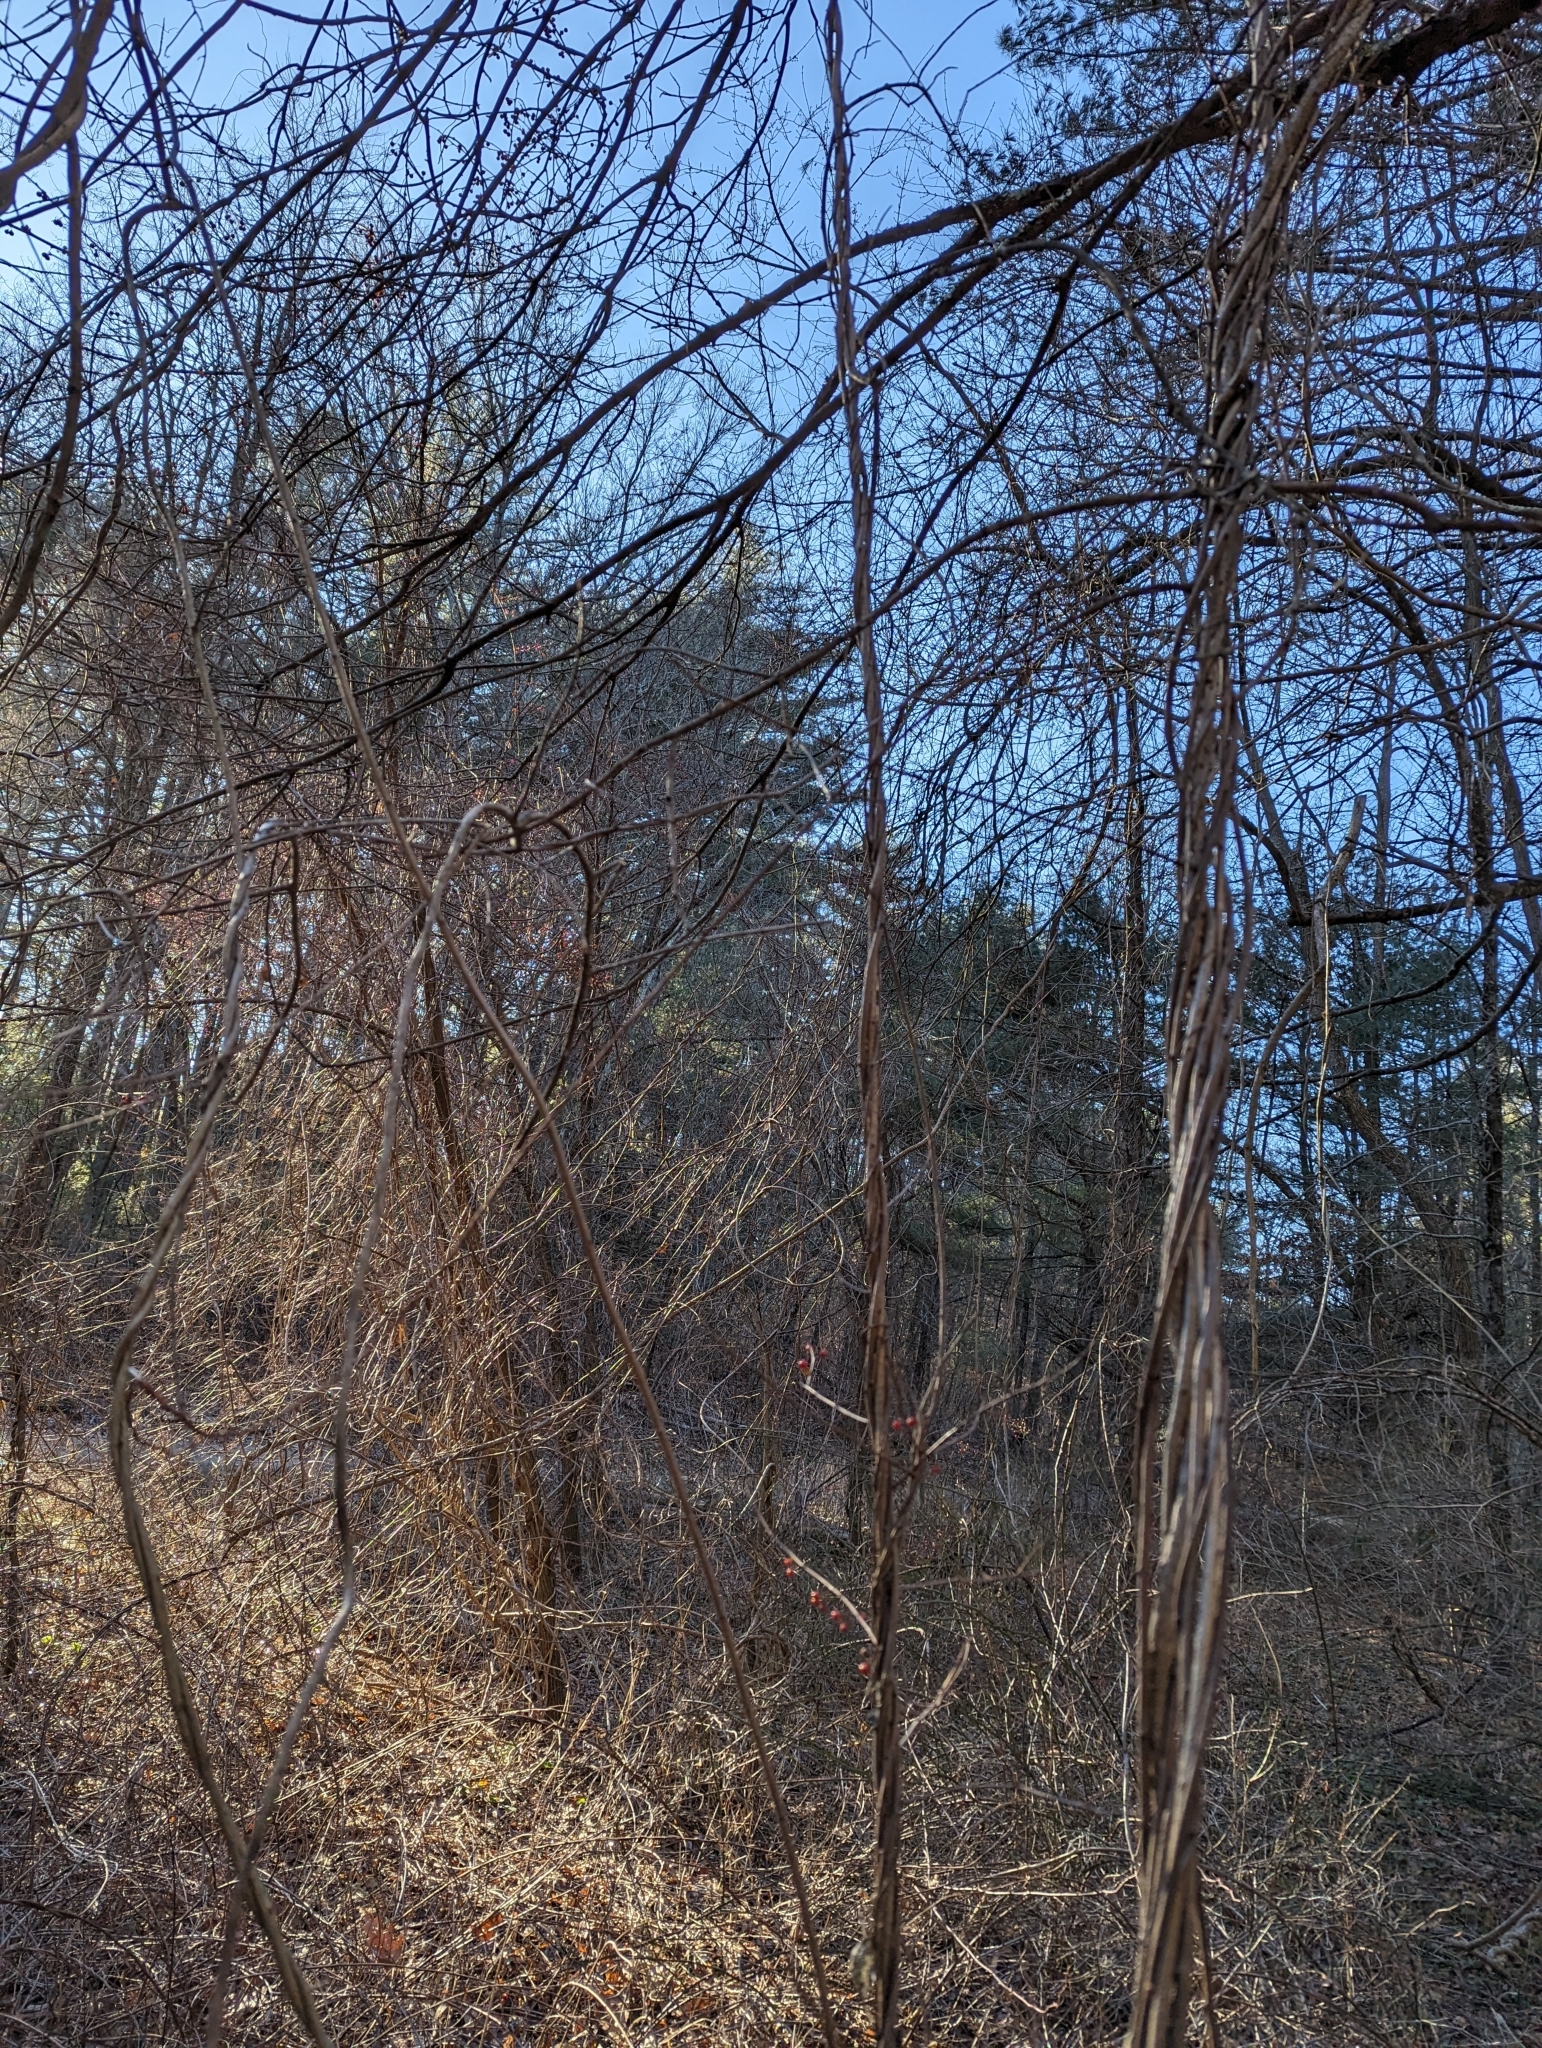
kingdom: Plantae
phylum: Tracheophyta
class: Magnoliopsida
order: Celastrales
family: Celastraceae
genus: Celastrus
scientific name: Celastrus orbiculatus
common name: Oriental bittersweet
